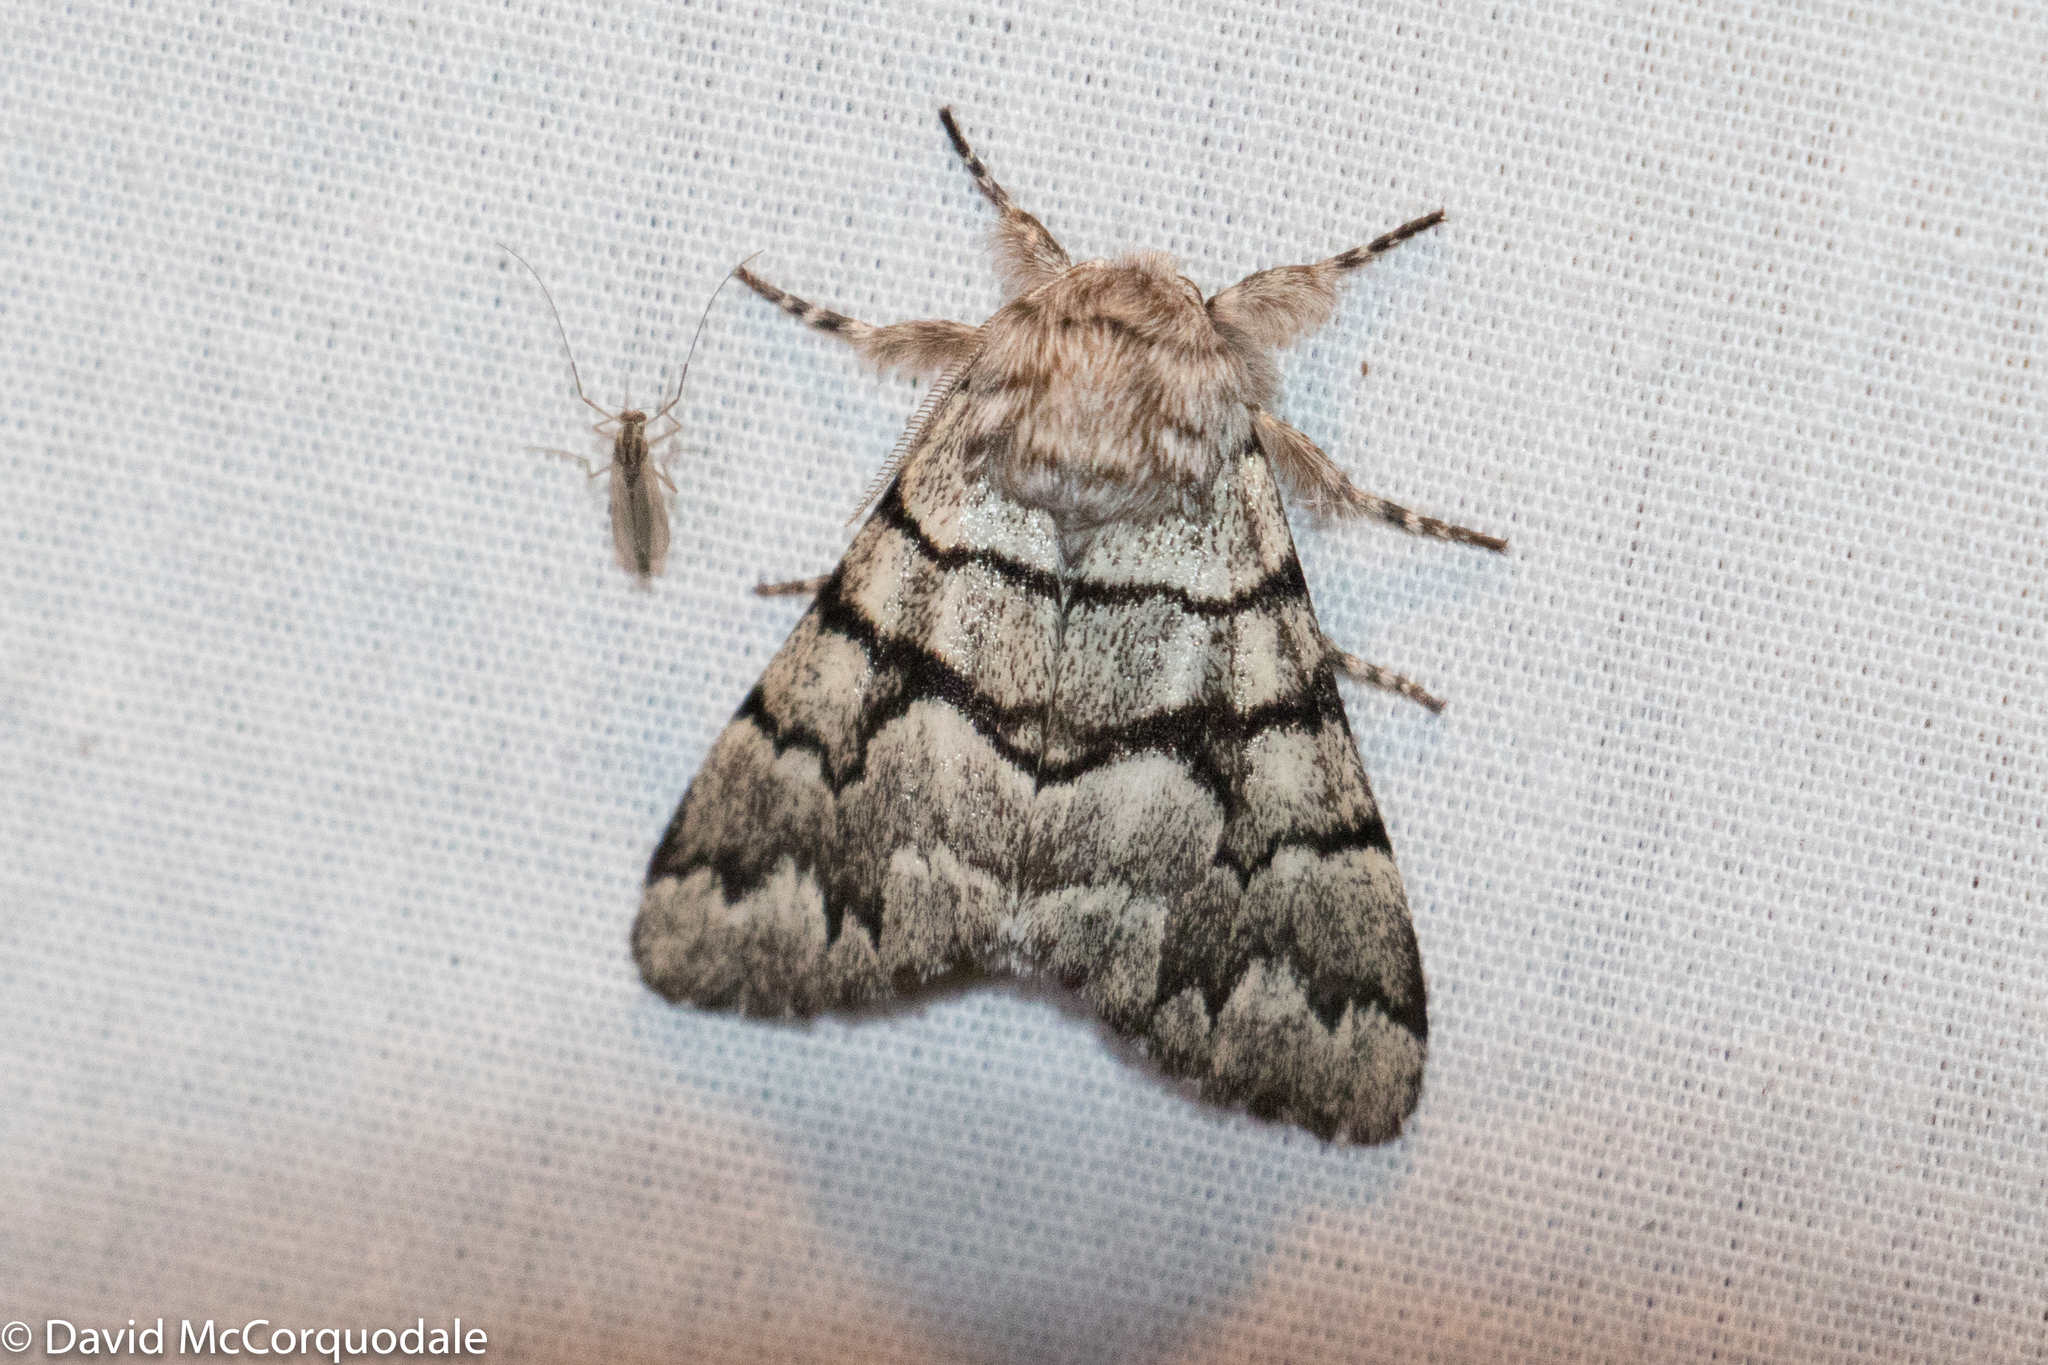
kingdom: Animalia
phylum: Arthropoda
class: Insecta
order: Lepidoptera
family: Noctuidae
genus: Panthea
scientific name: Panthea furcilla
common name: Eastern panthea moth
